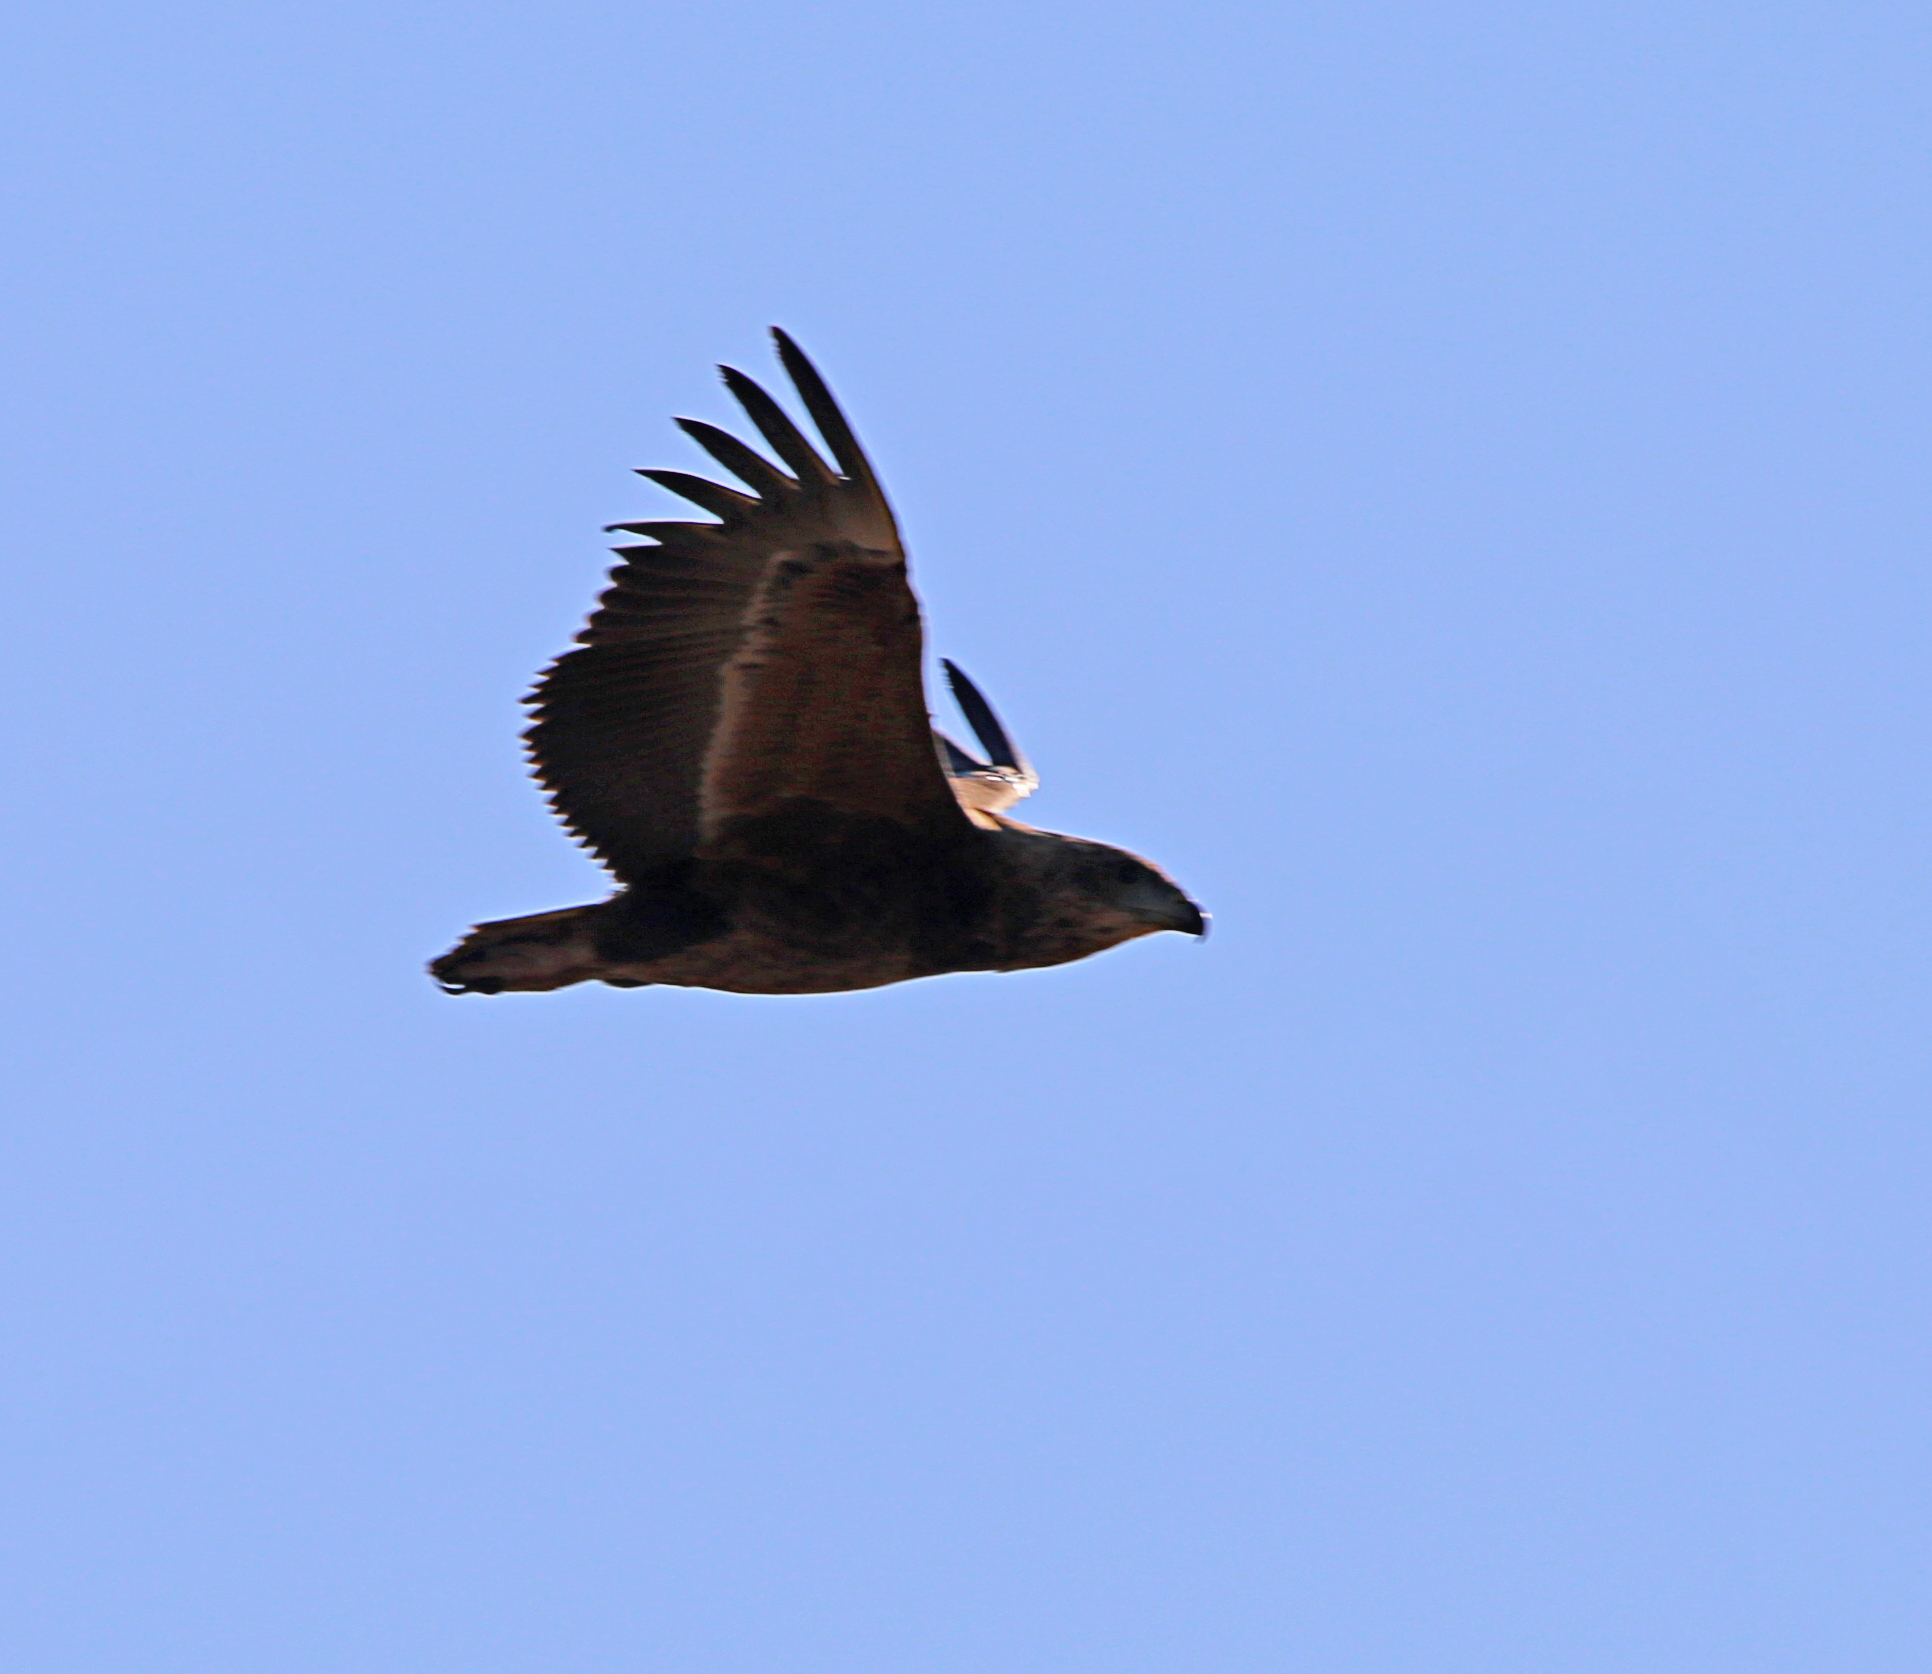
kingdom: Animalia
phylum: Chordata
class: Aves
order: Accipitriformes
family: Accipitridae
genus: Terathopius
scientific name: Terathopius ecaudatus
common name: Bateleur
